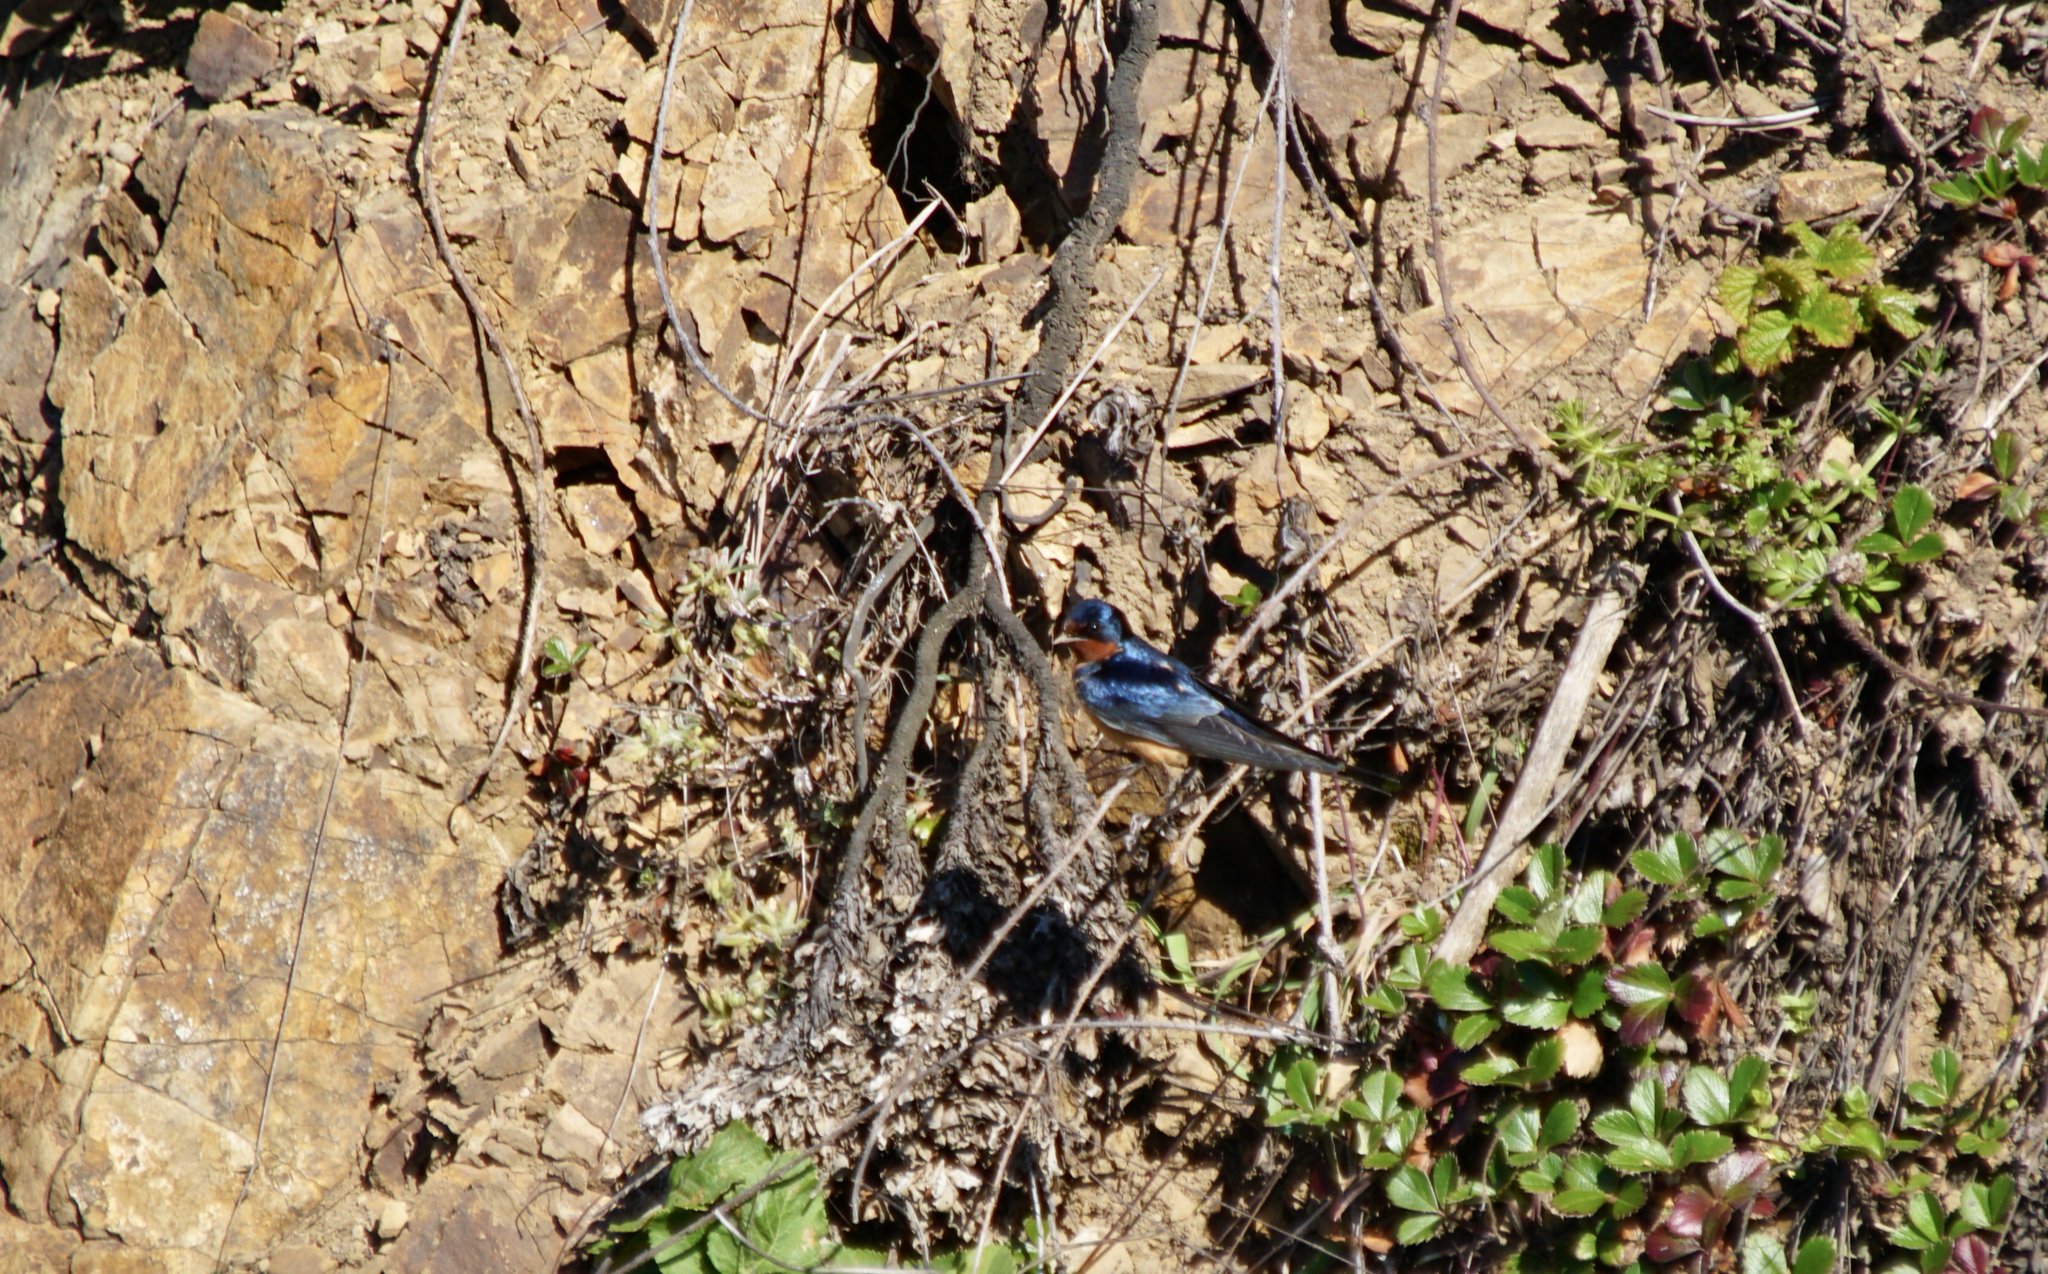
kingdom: Animalia
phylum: Chordata
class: Aves
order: Passeriformes
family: Hirundinidae
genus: Hirundo
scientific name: Hirundo rustica
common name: Barn swallow
